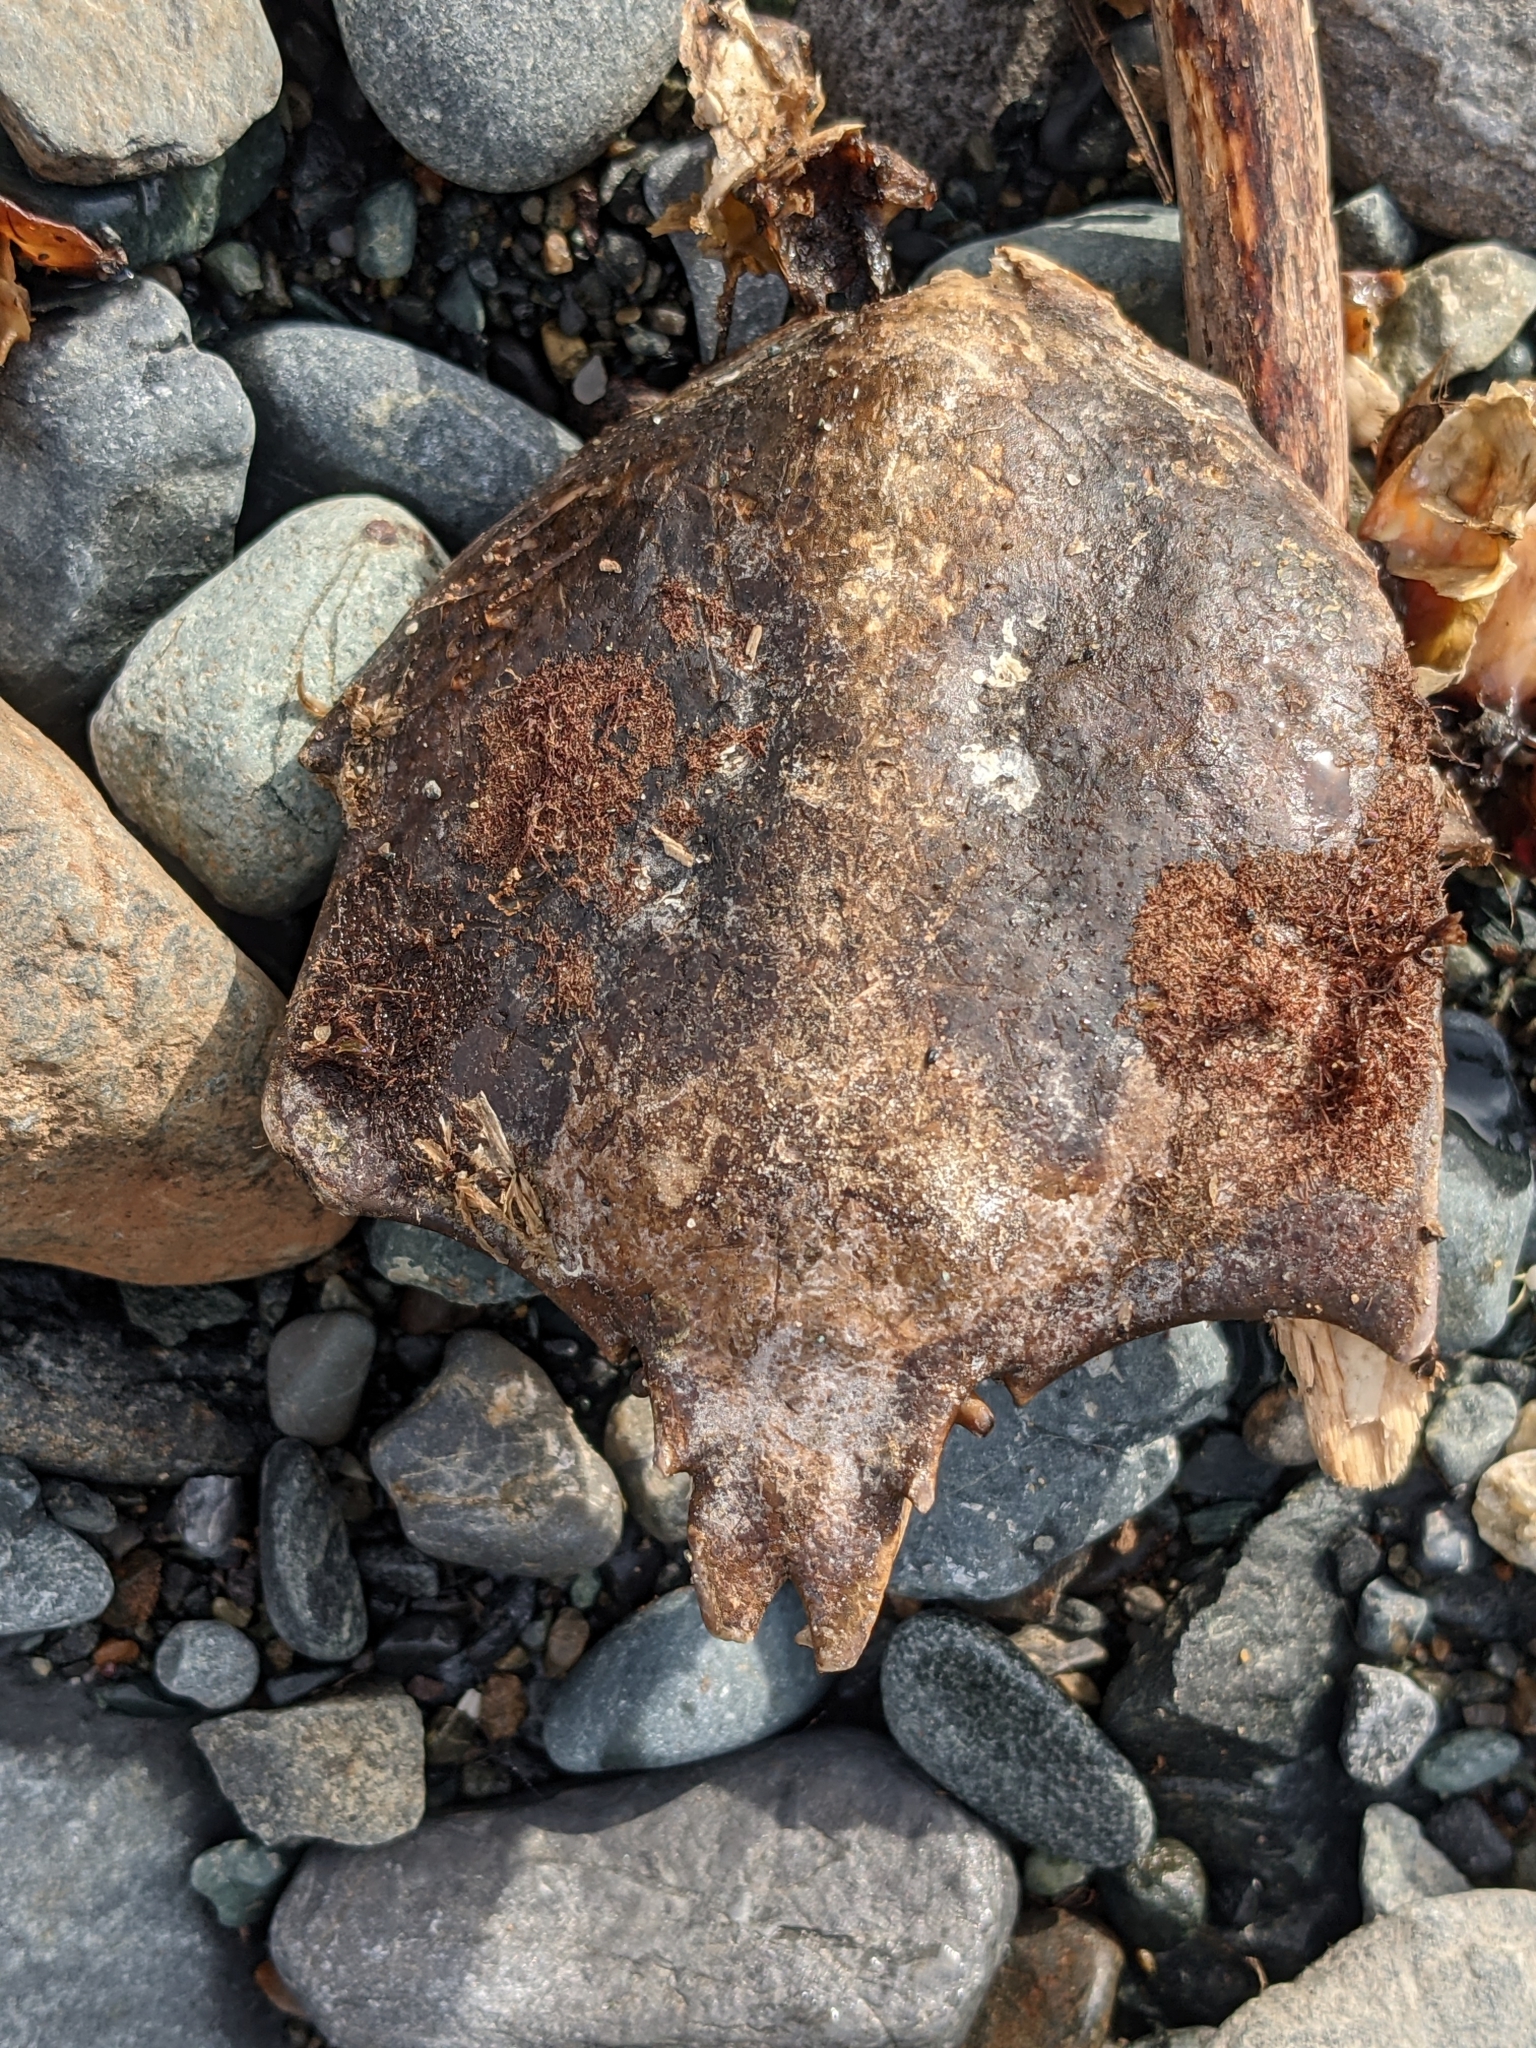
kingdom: Animalia
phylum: Arthropoda
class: Malacostraca
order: Decapoda
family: Epialtidae
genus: Pugettia
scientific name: Pugettia producta
